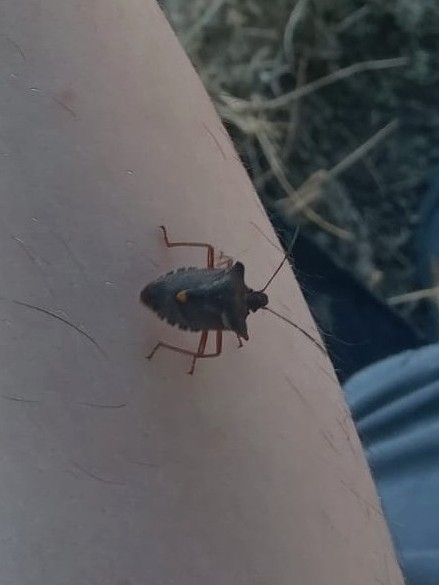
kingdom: Animalia
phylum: Arthropoda
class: Insecta
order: Hemiptera
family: Pentatomidae
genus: Pentatoma
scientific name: Pentatoma rufipes
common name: Forest bug
